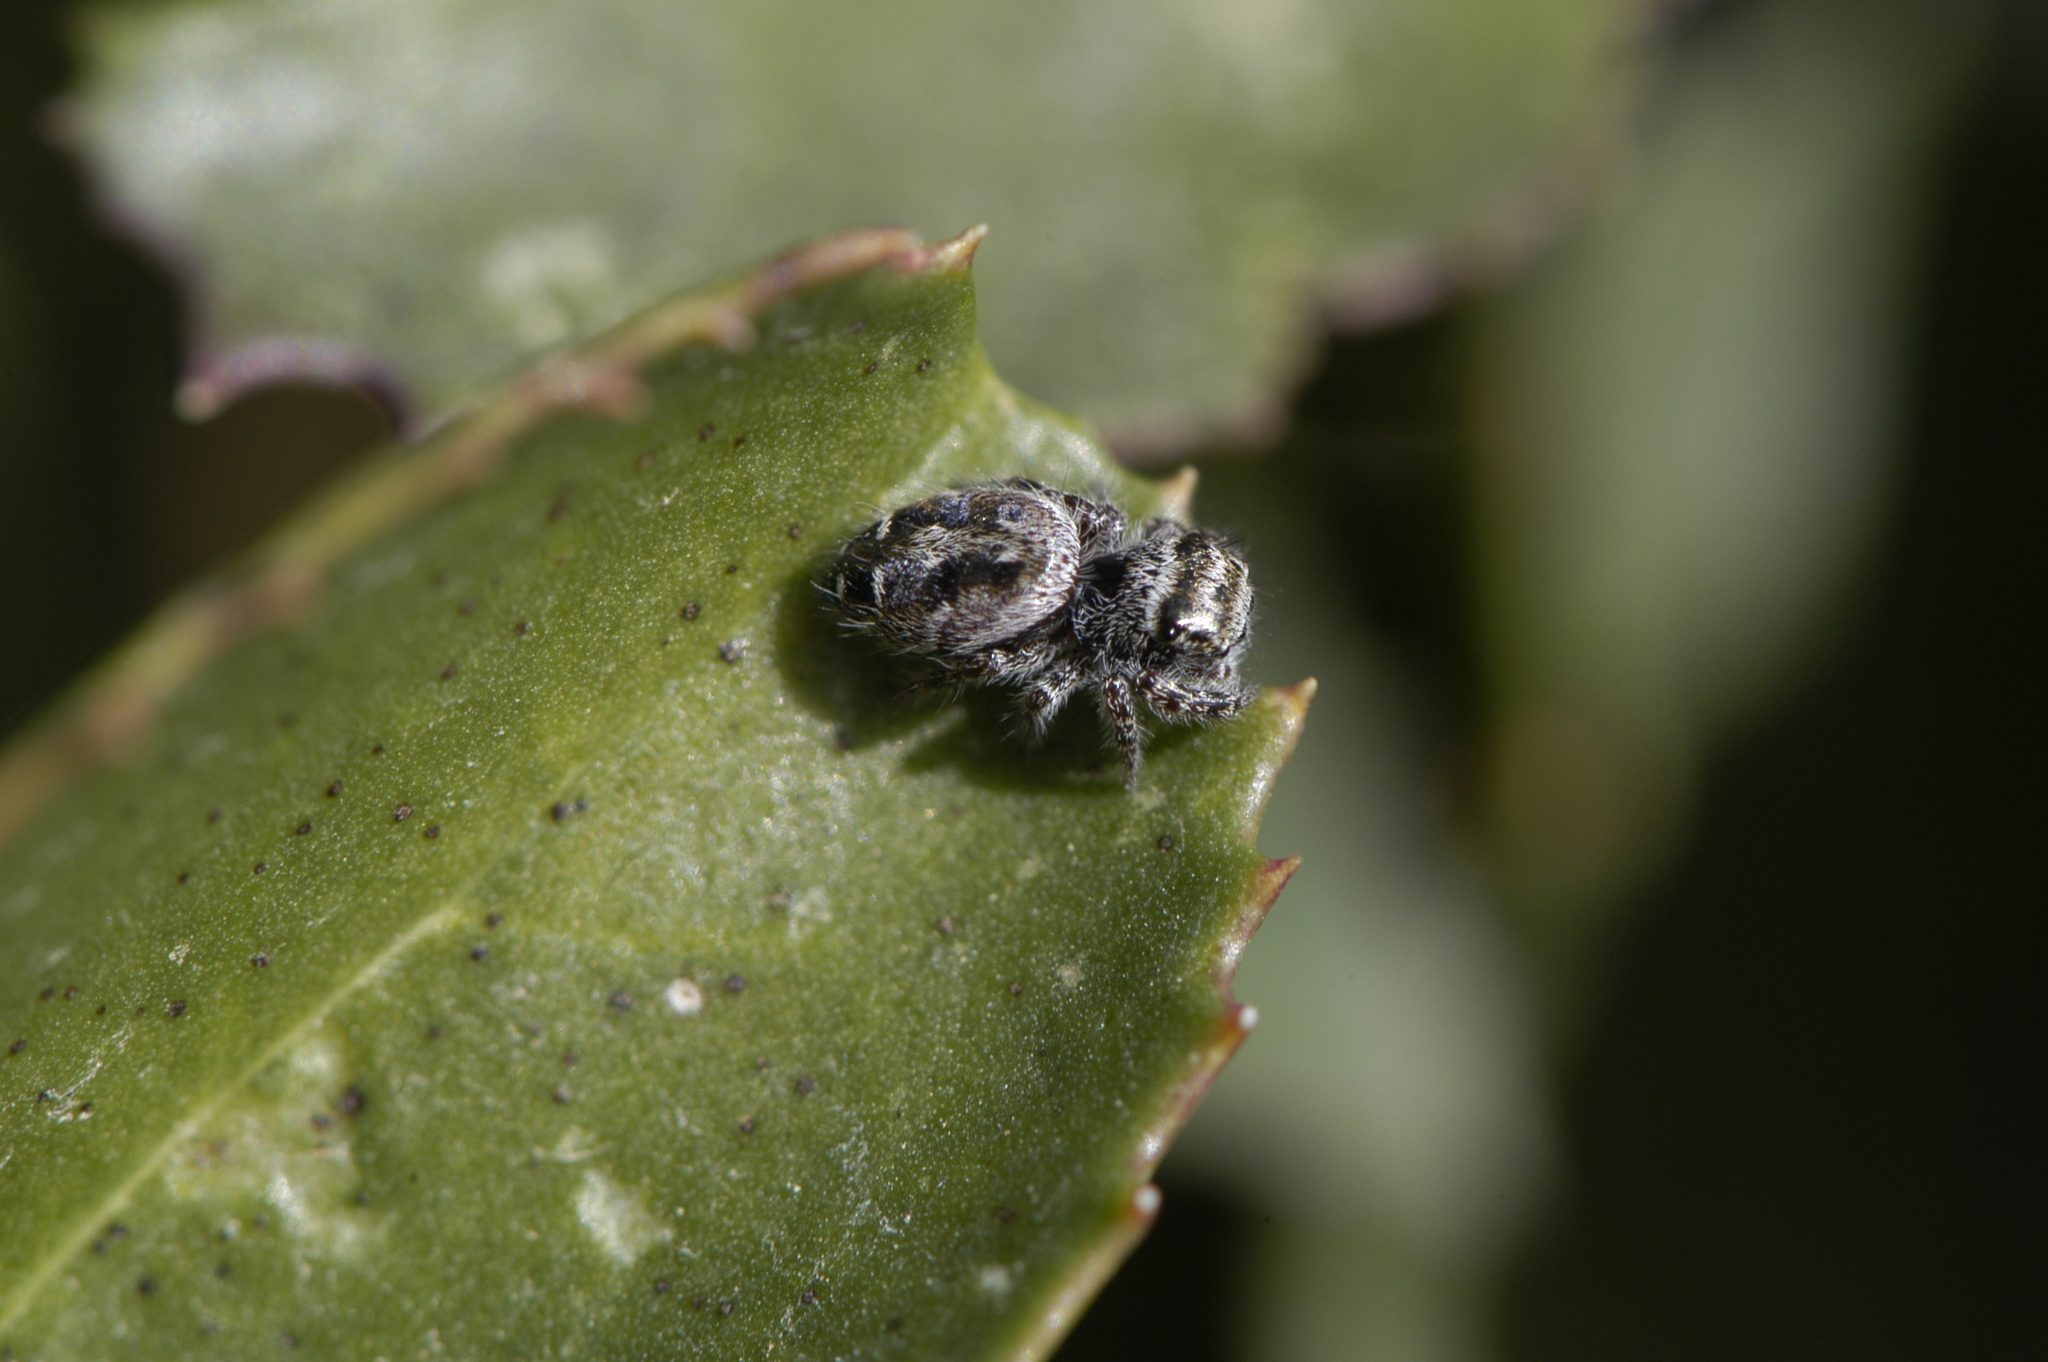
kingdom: Animalia
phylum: Arthropoda
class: Arachnida
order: Araneae
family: Salticidae
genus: Phidippus
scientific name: Phidippus comatus
